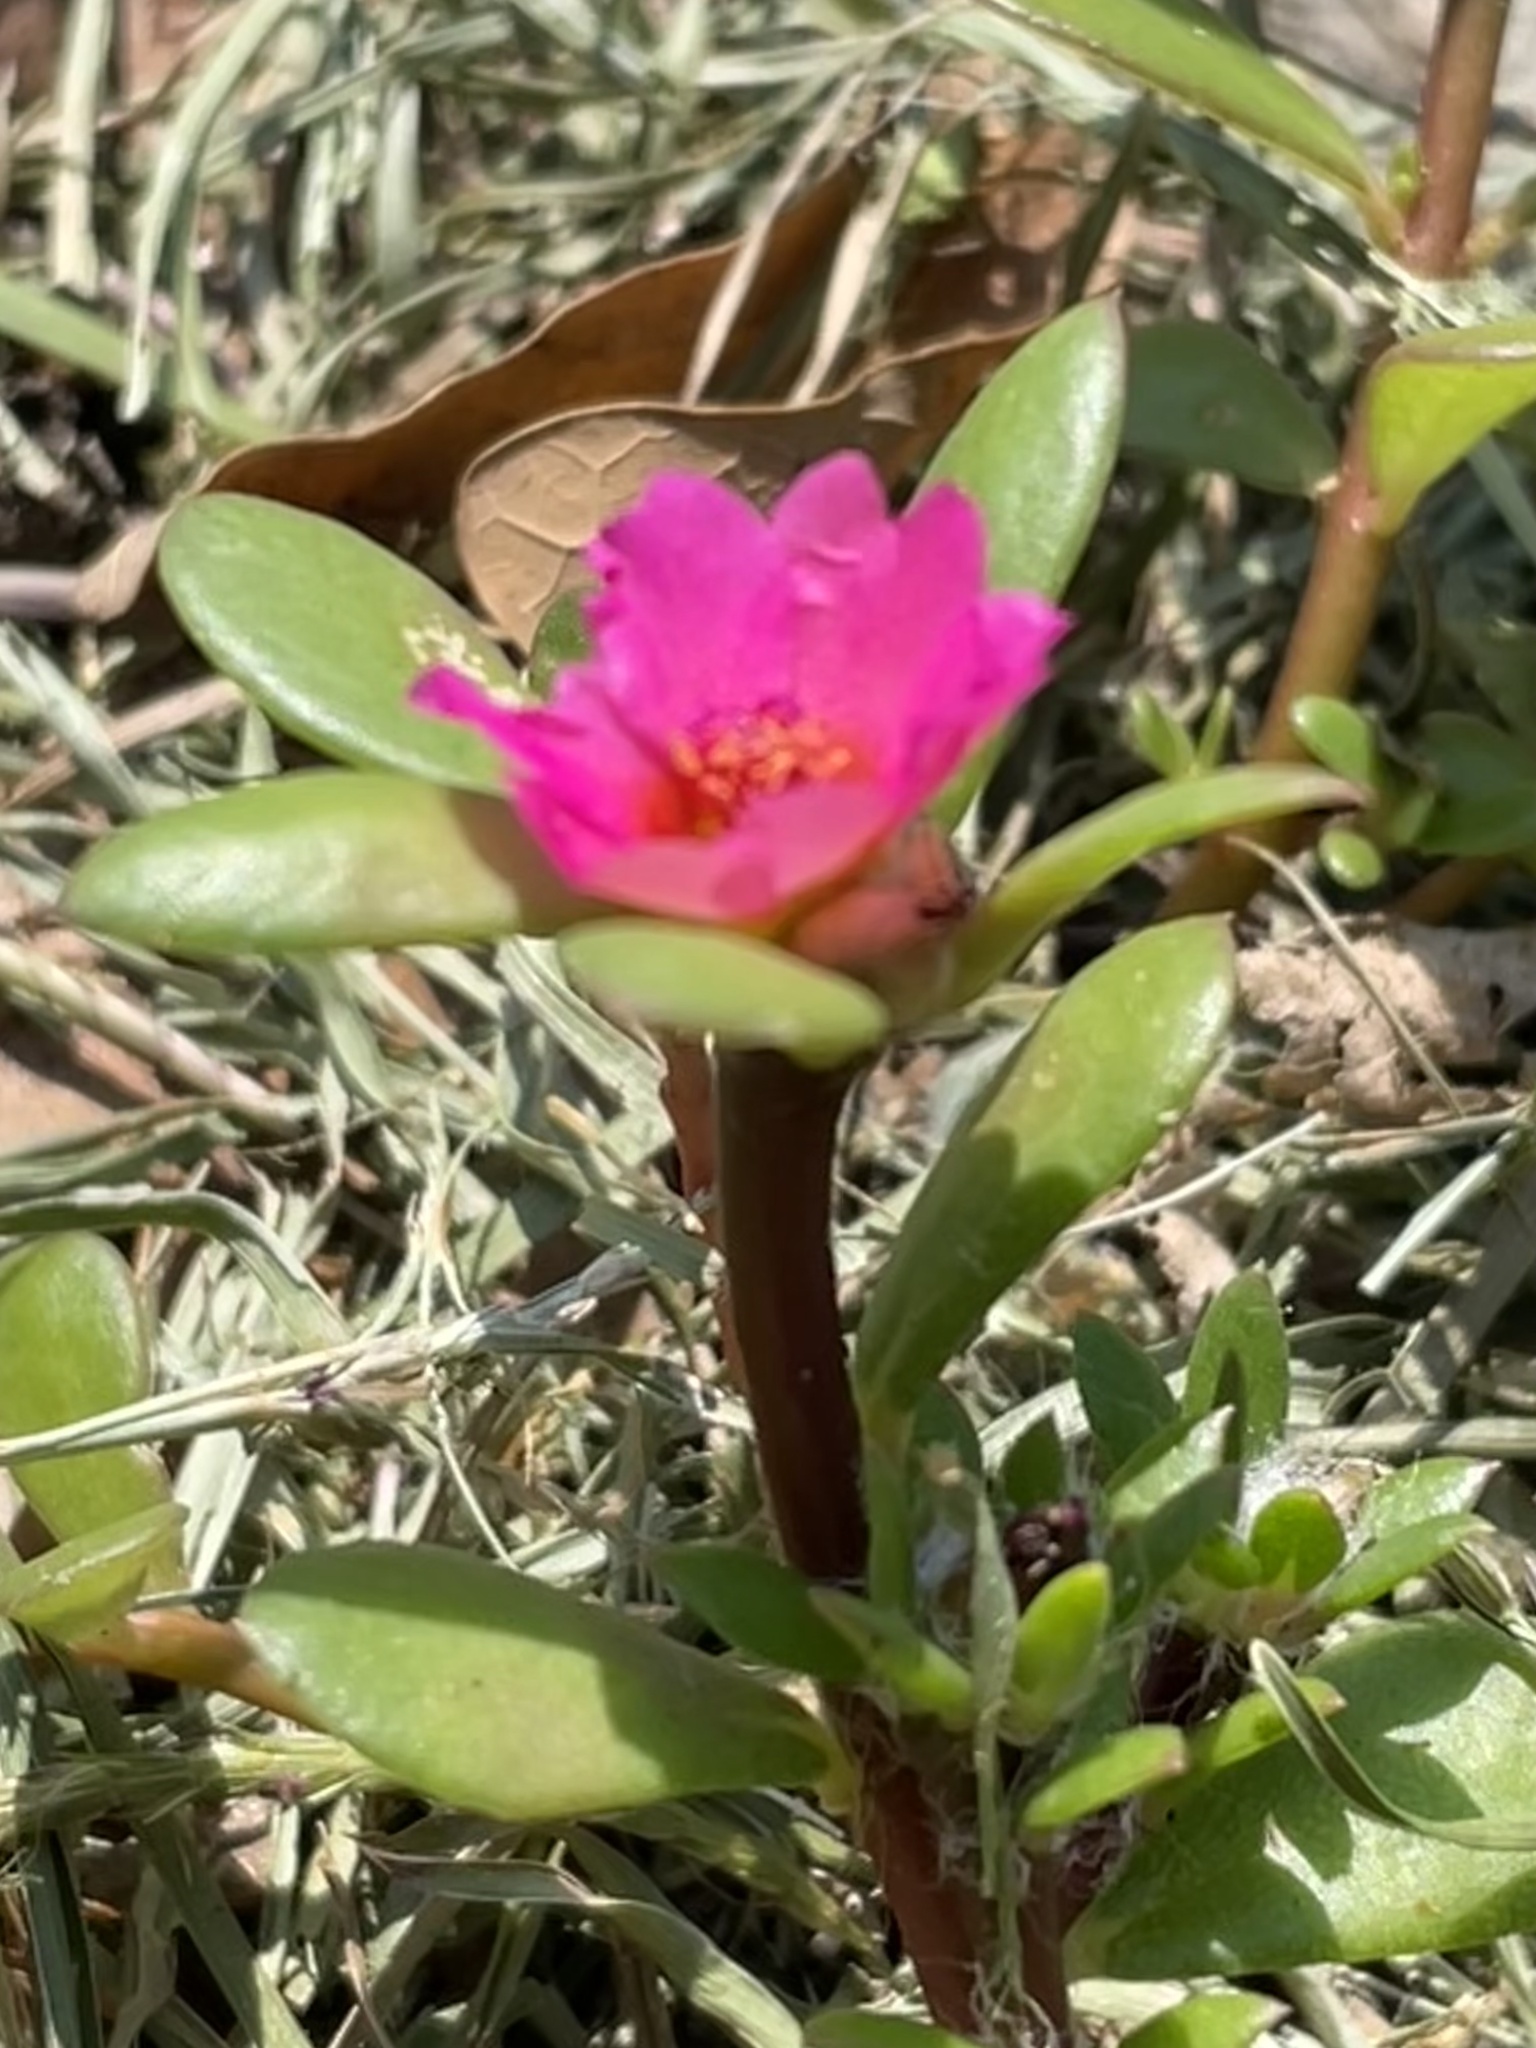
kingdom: Plantae
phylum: Tracheophyta
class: Magnoliopsida
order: Caryophyllales
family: Portulacaceae
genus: Portulaca
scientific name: Portulaca amilis
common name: Paraguayan purslane
